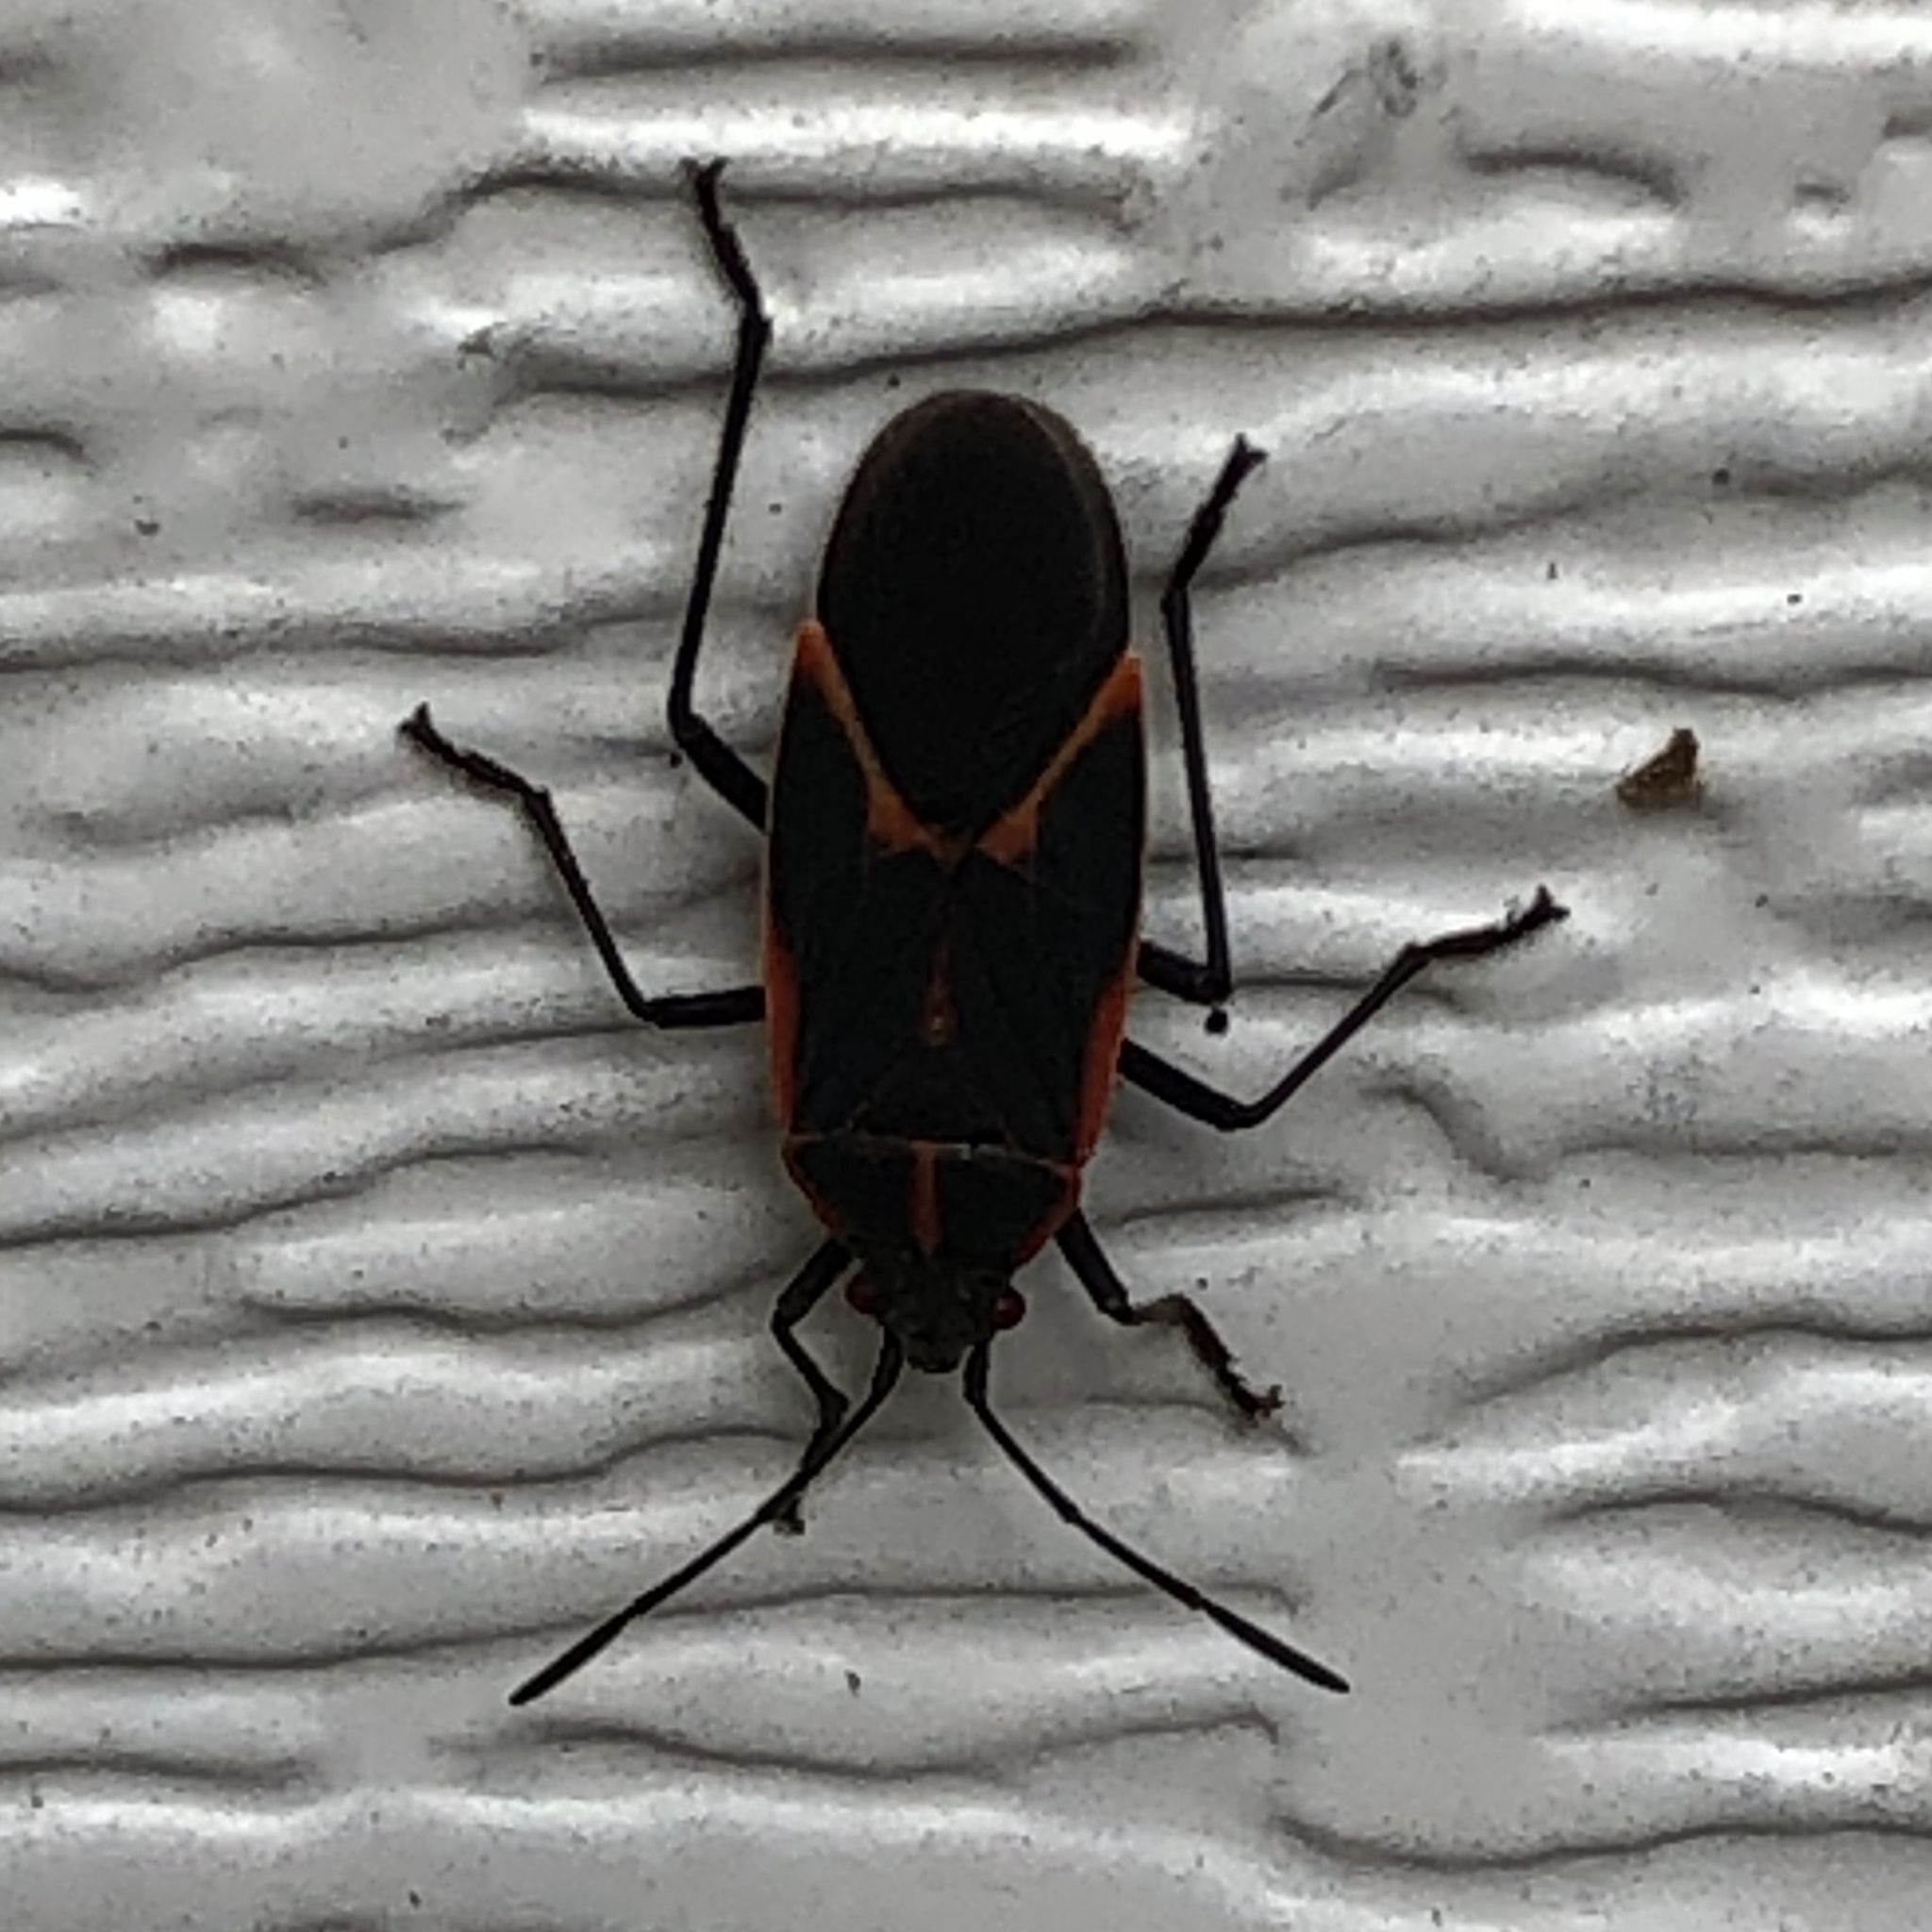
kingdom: Animalia
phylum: Arthropoda
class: Insecta
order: Hemiptera
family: Rhopalidae
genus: Boisea
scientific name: Boisea trivittata
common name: Boxelder bug
